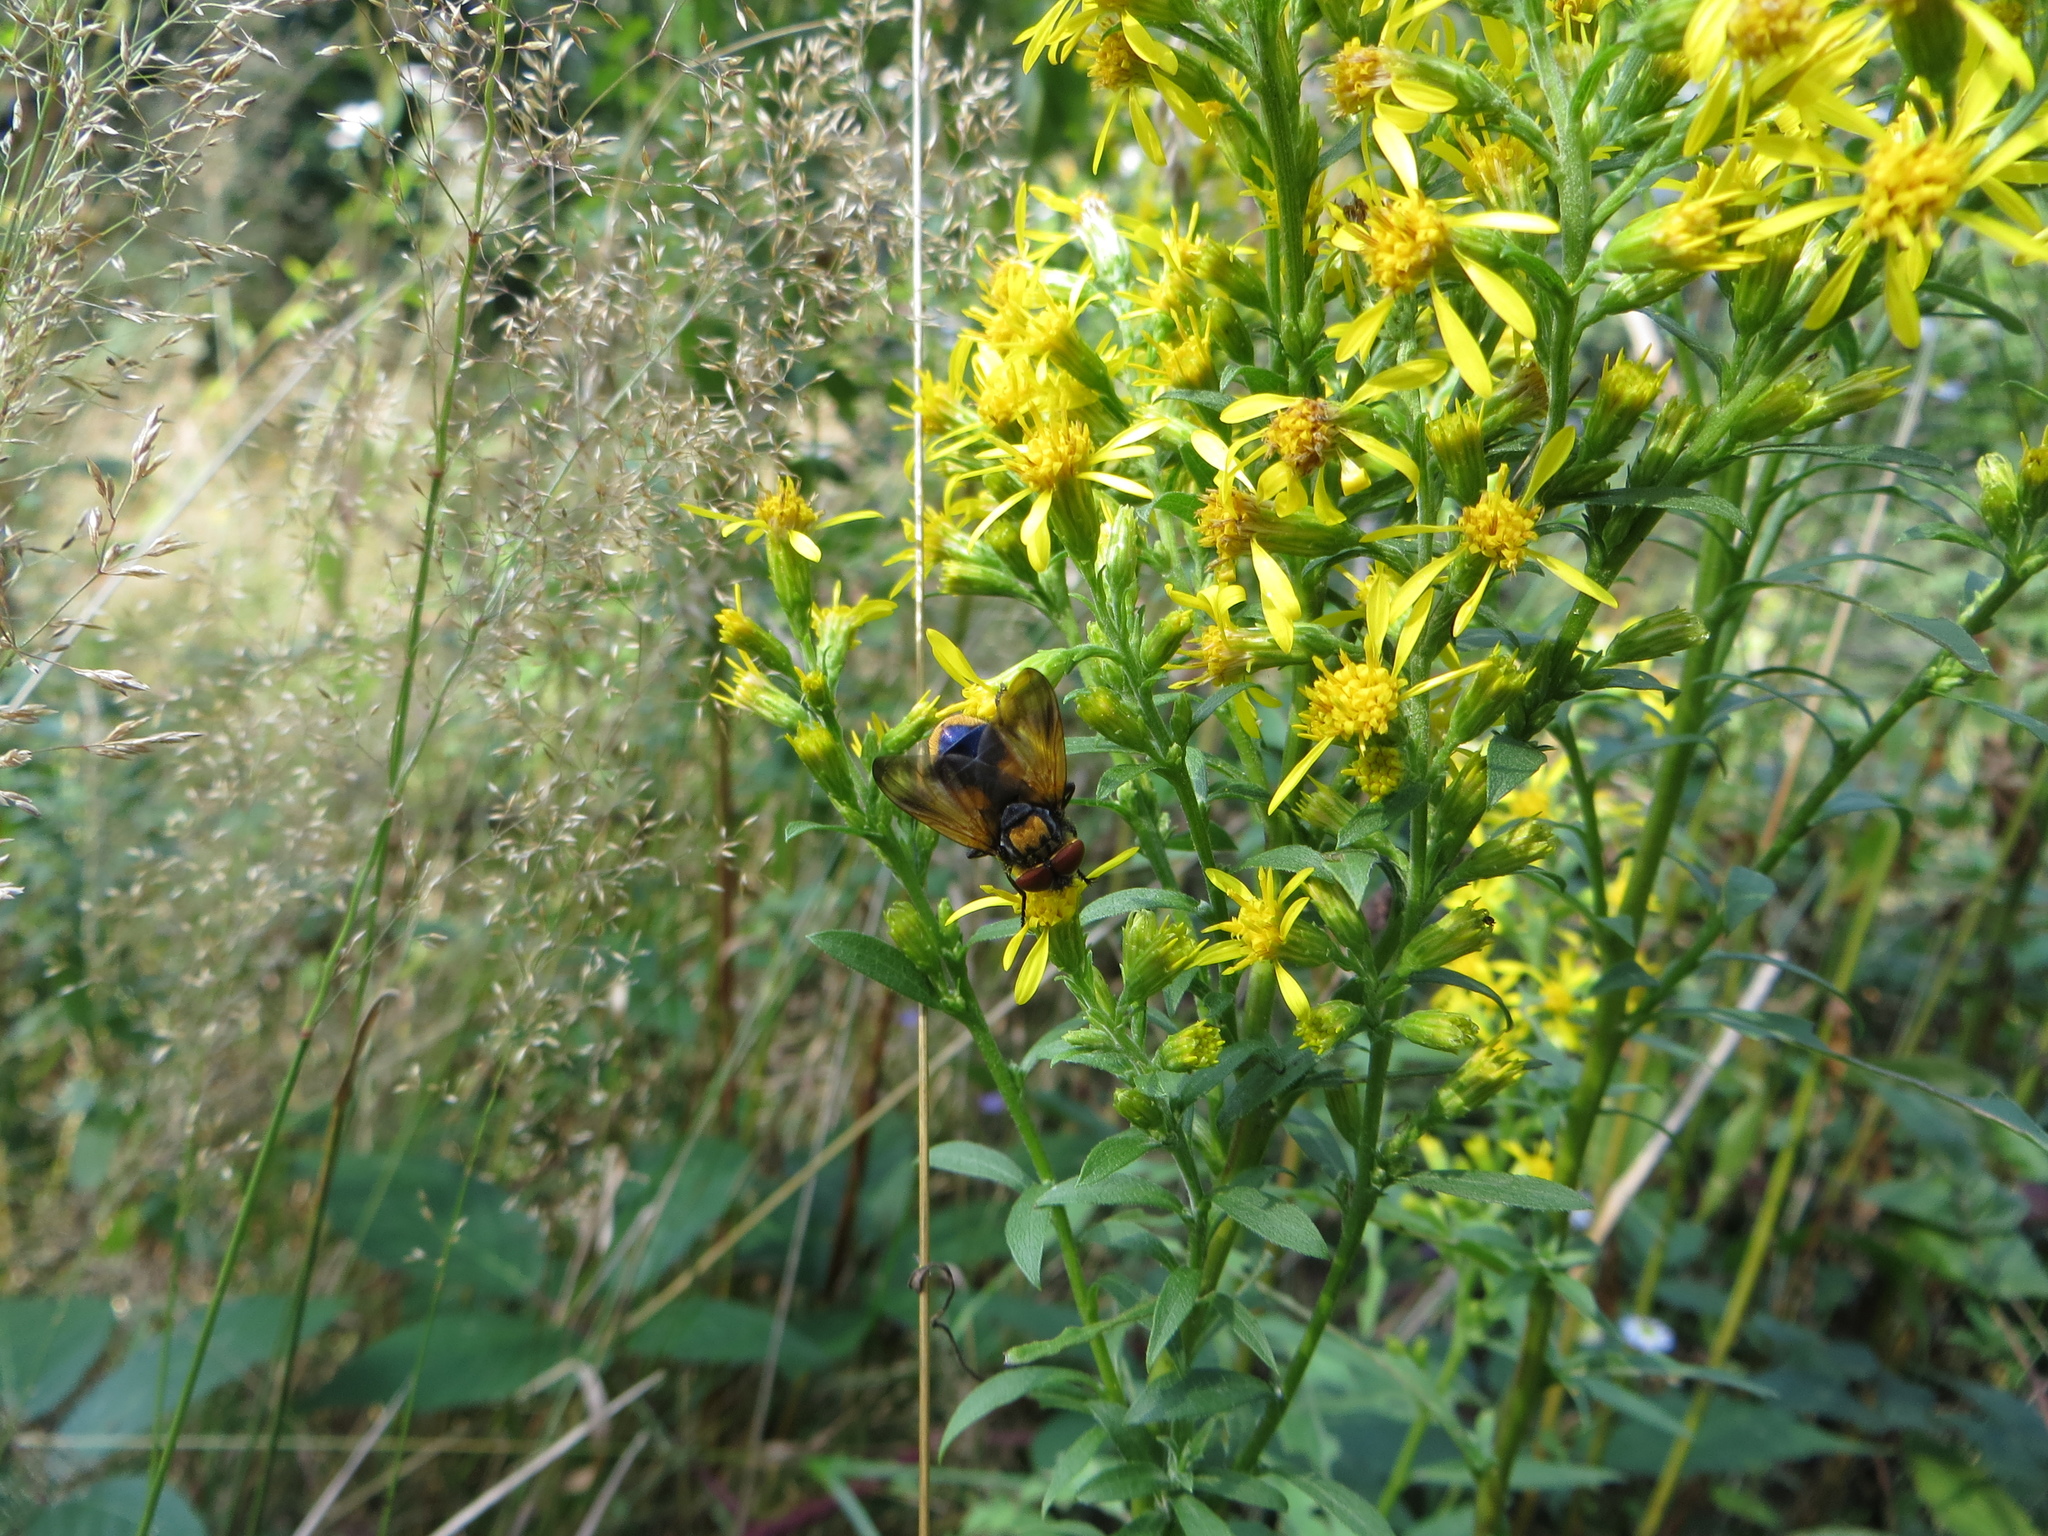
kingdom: Animalia
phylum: Arthropoda
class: Insecta
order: Diptera
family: Tachinidae
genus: Phasia
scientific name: Phasia aurigera
